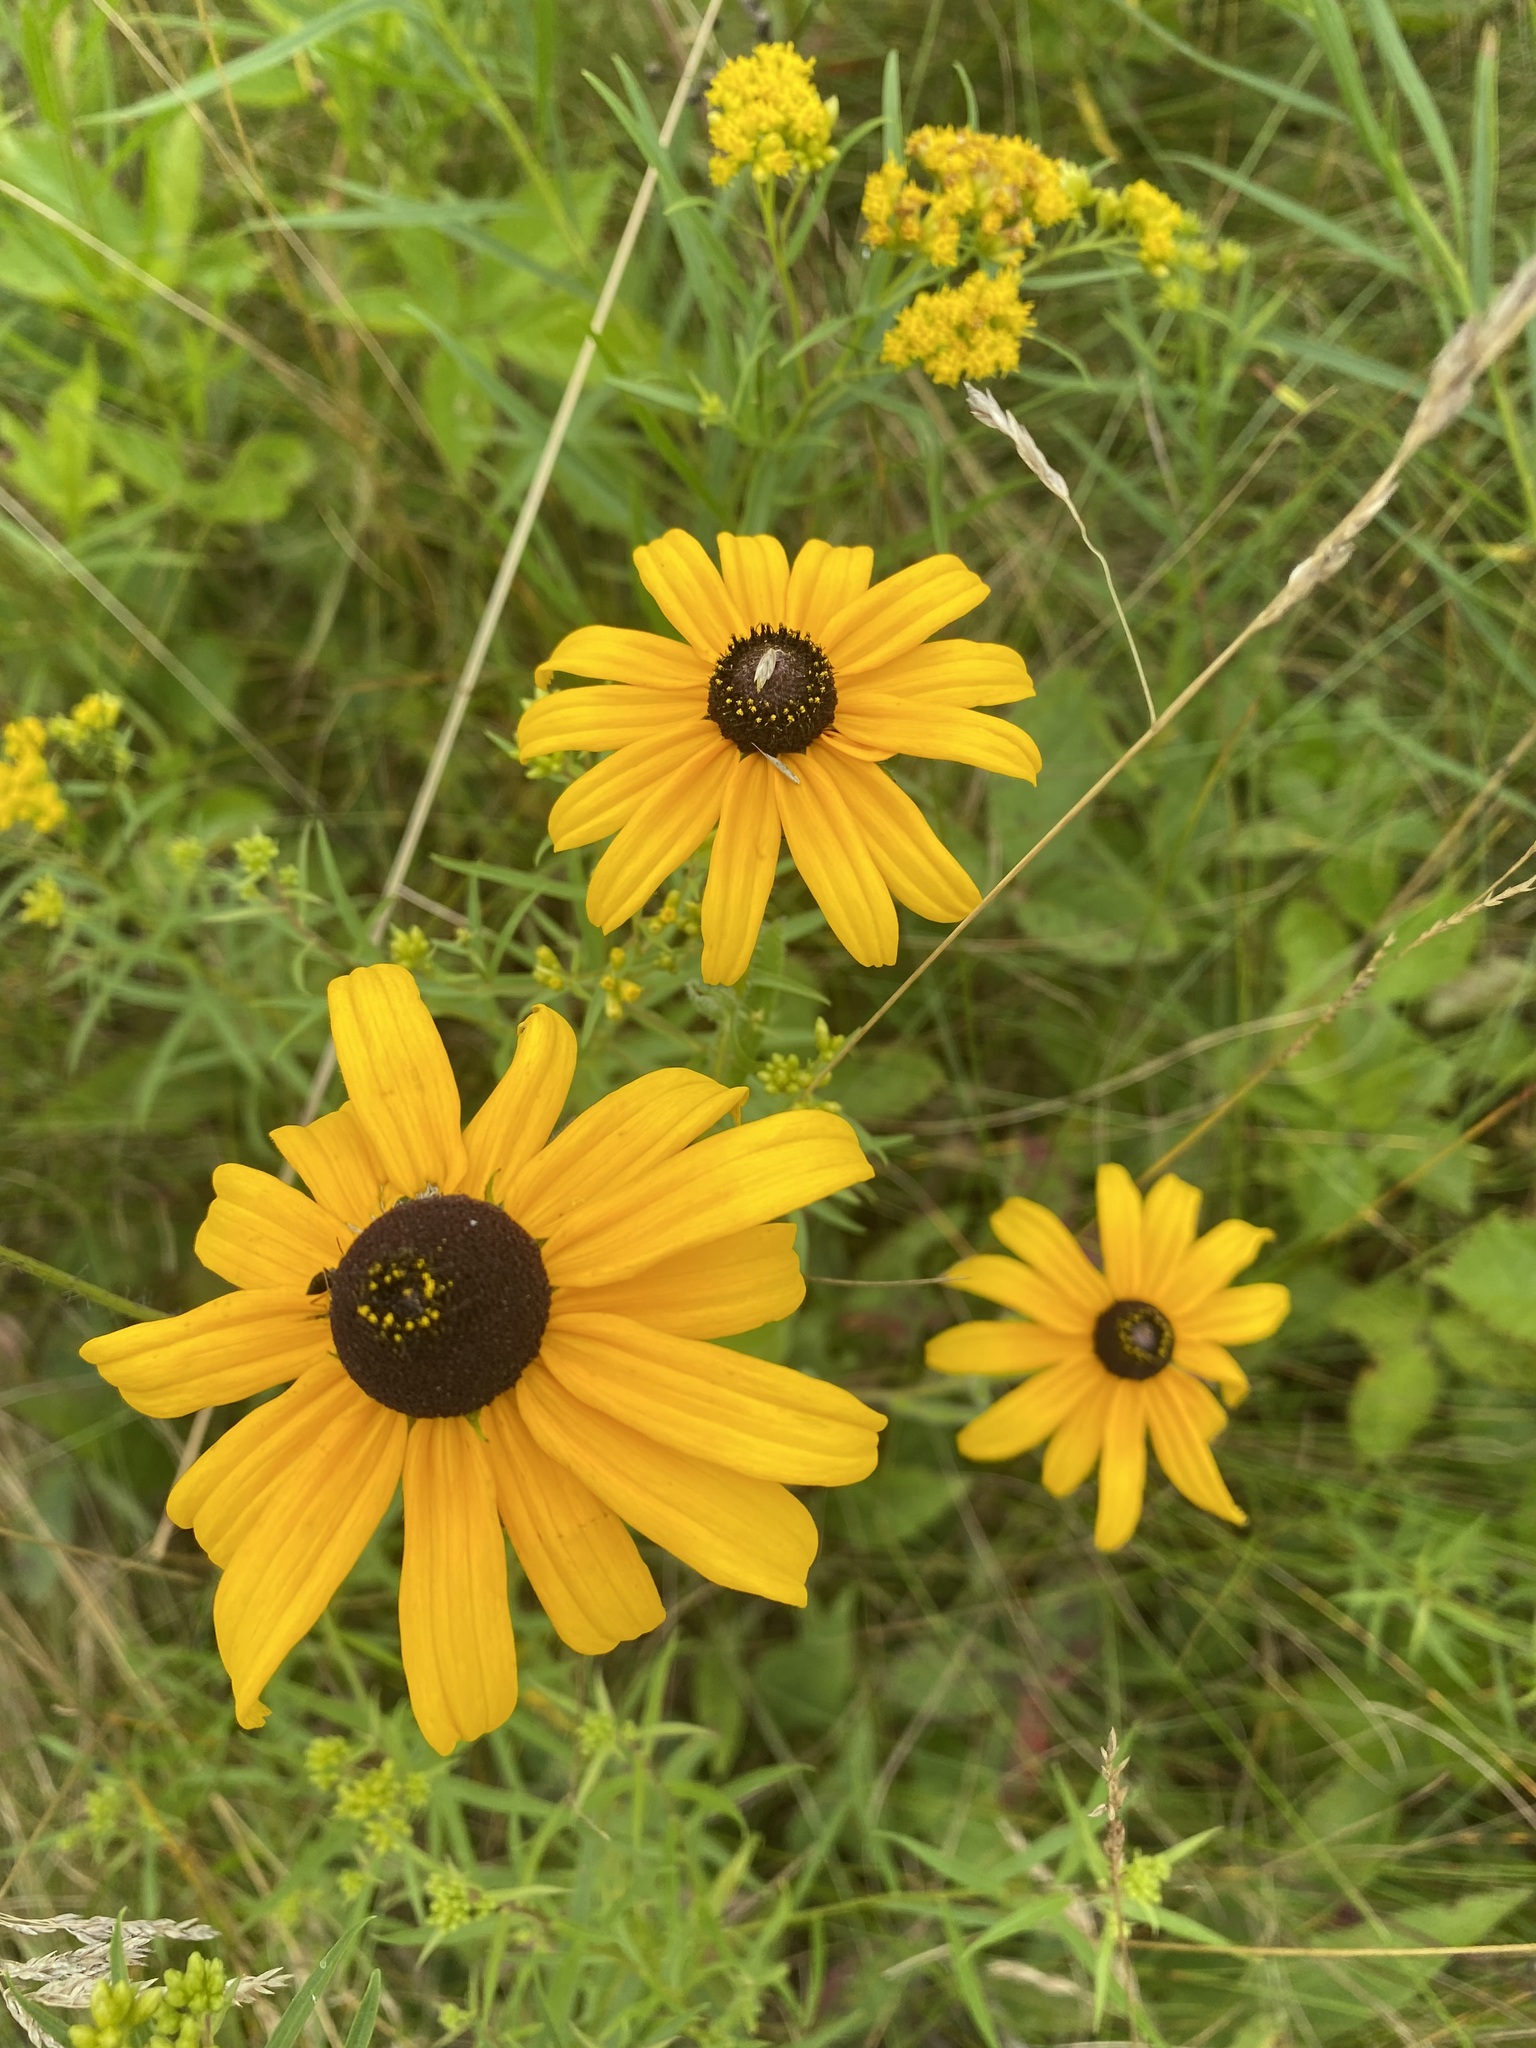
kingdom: Plantae
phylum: Tracheophyta
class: Magnoliopsida
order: Asterales
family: Asteraceae
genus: Rudbeckia
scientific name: Rudbeckia hirta
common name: Black-eyed-susan
